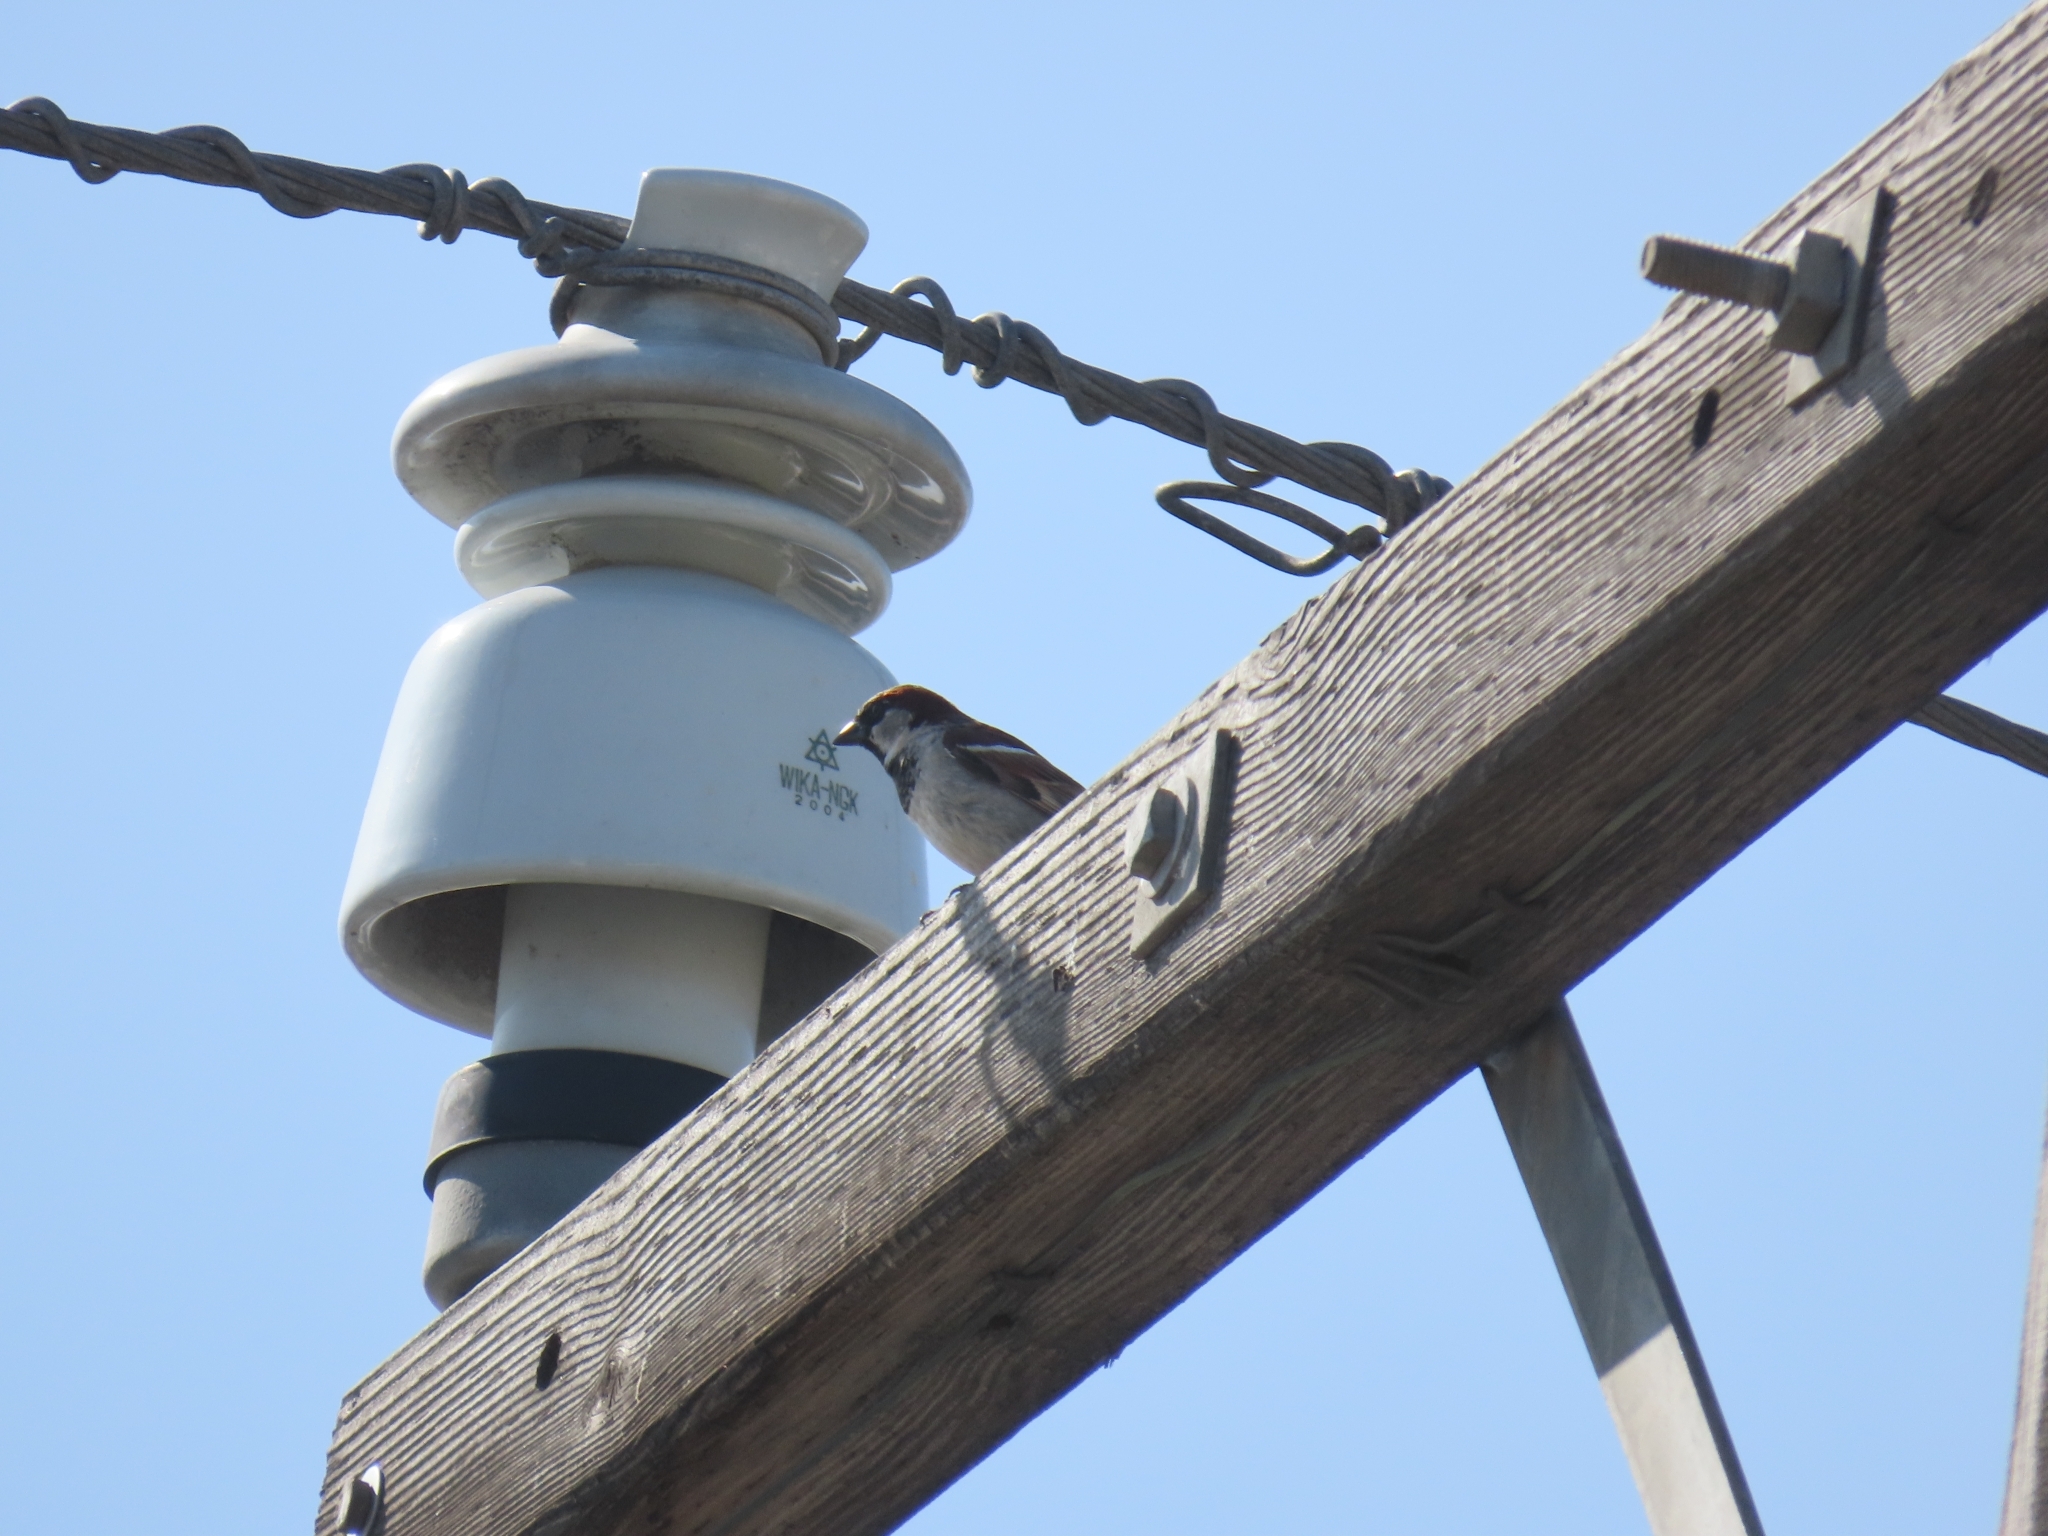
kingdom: Animalia
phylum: Chordata
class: Aves
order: Passeriformes
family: Passeridae
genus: Passer
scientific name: Passer domesticus
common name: House sparrow
